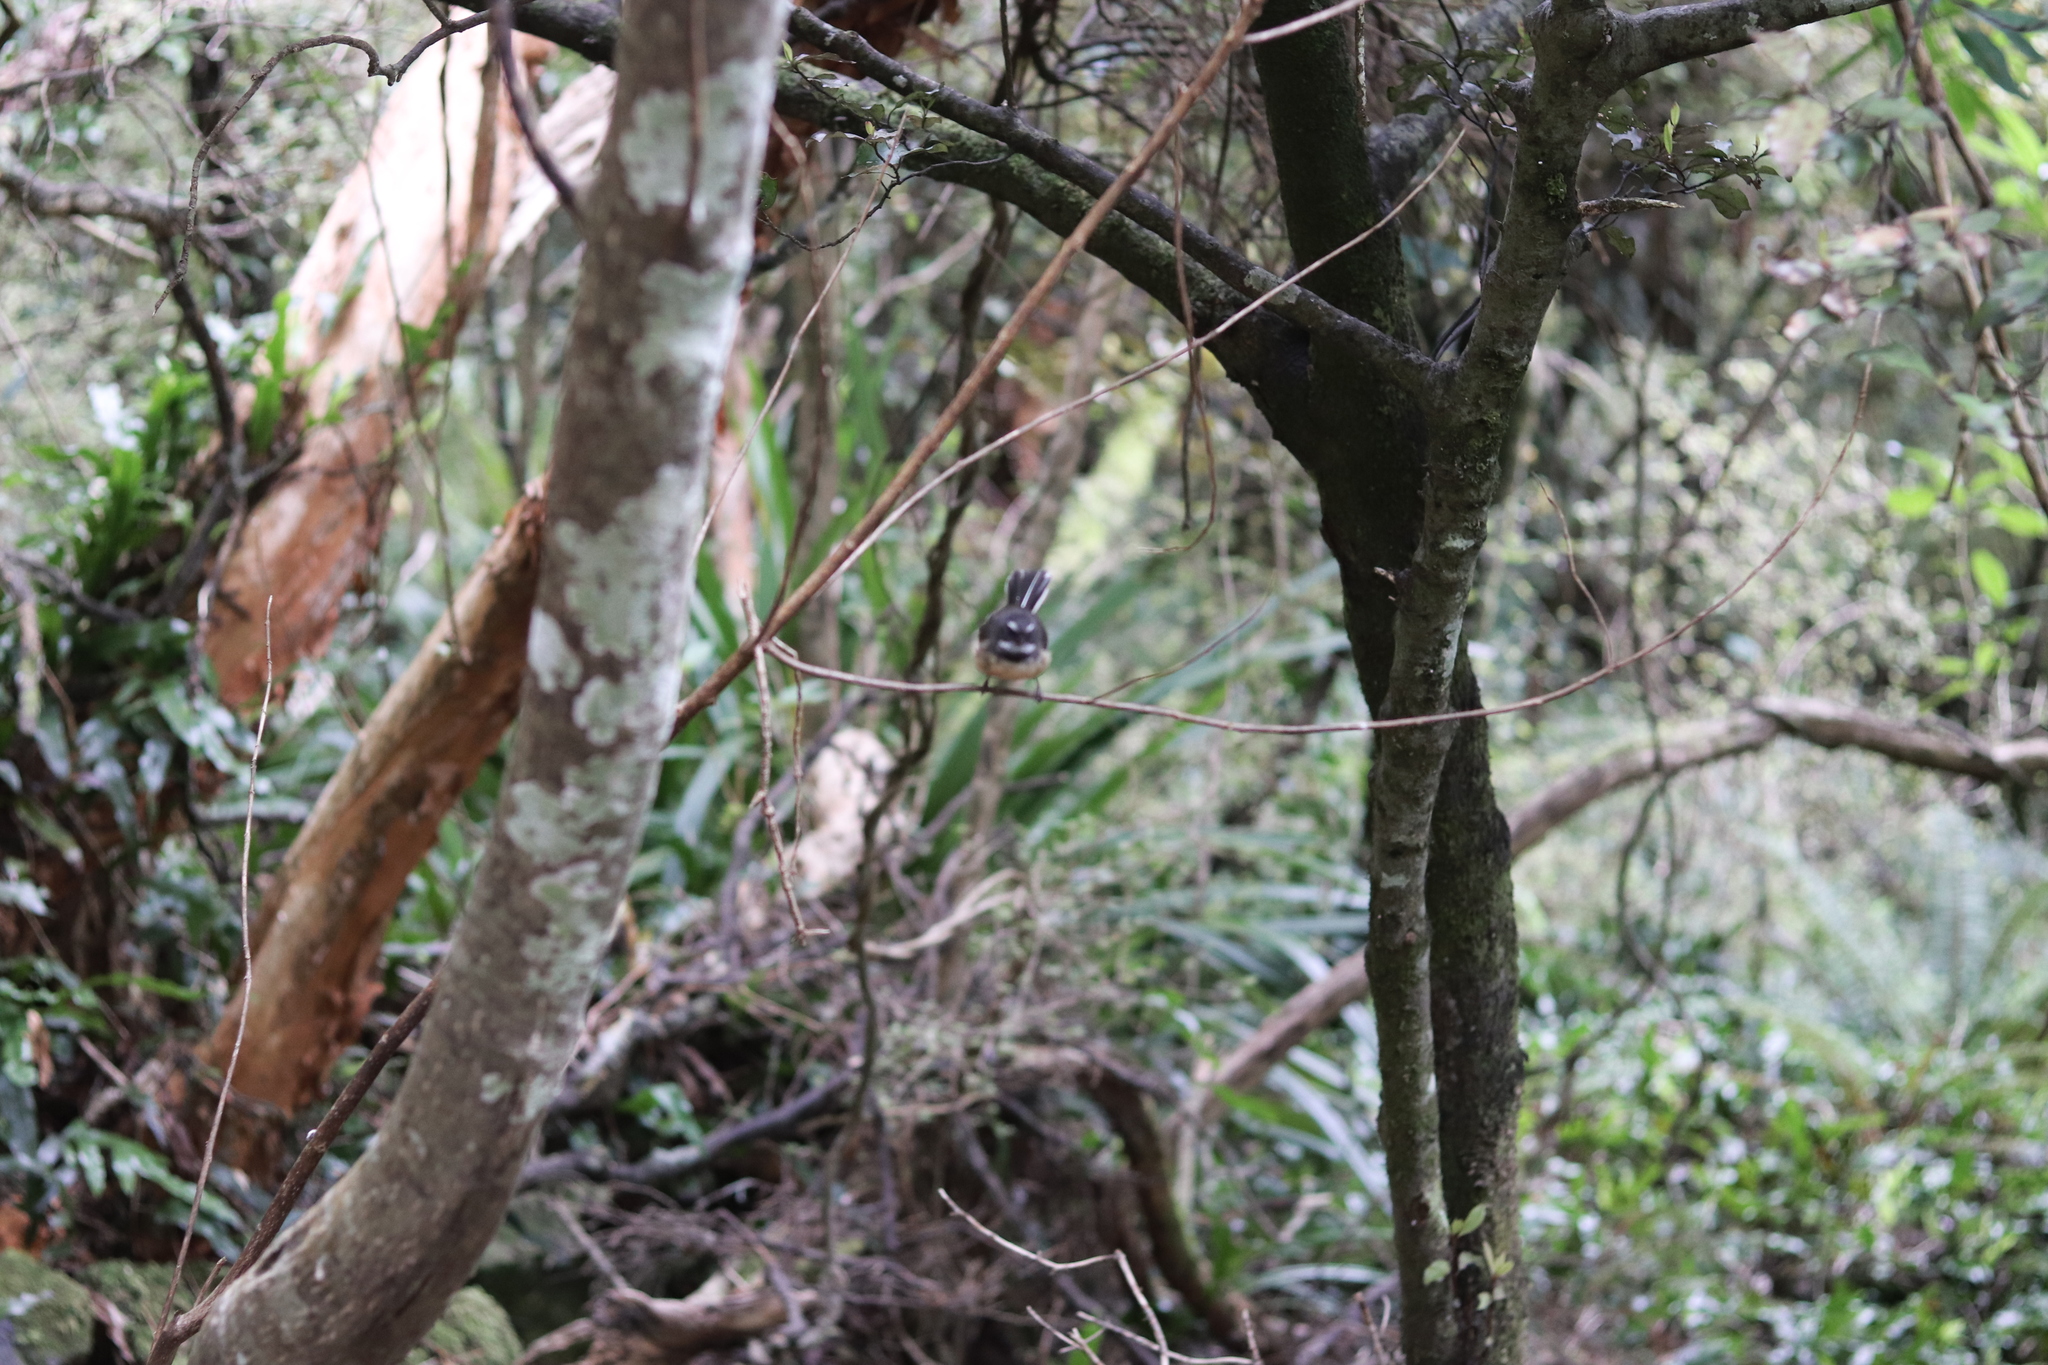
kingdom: Animalia
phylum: Chordata
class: Aves
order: Passeriformes
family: Rhipiduridae
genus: Rhipidura
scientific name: Rhipidura fuliginosa
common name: New zealand fantail
